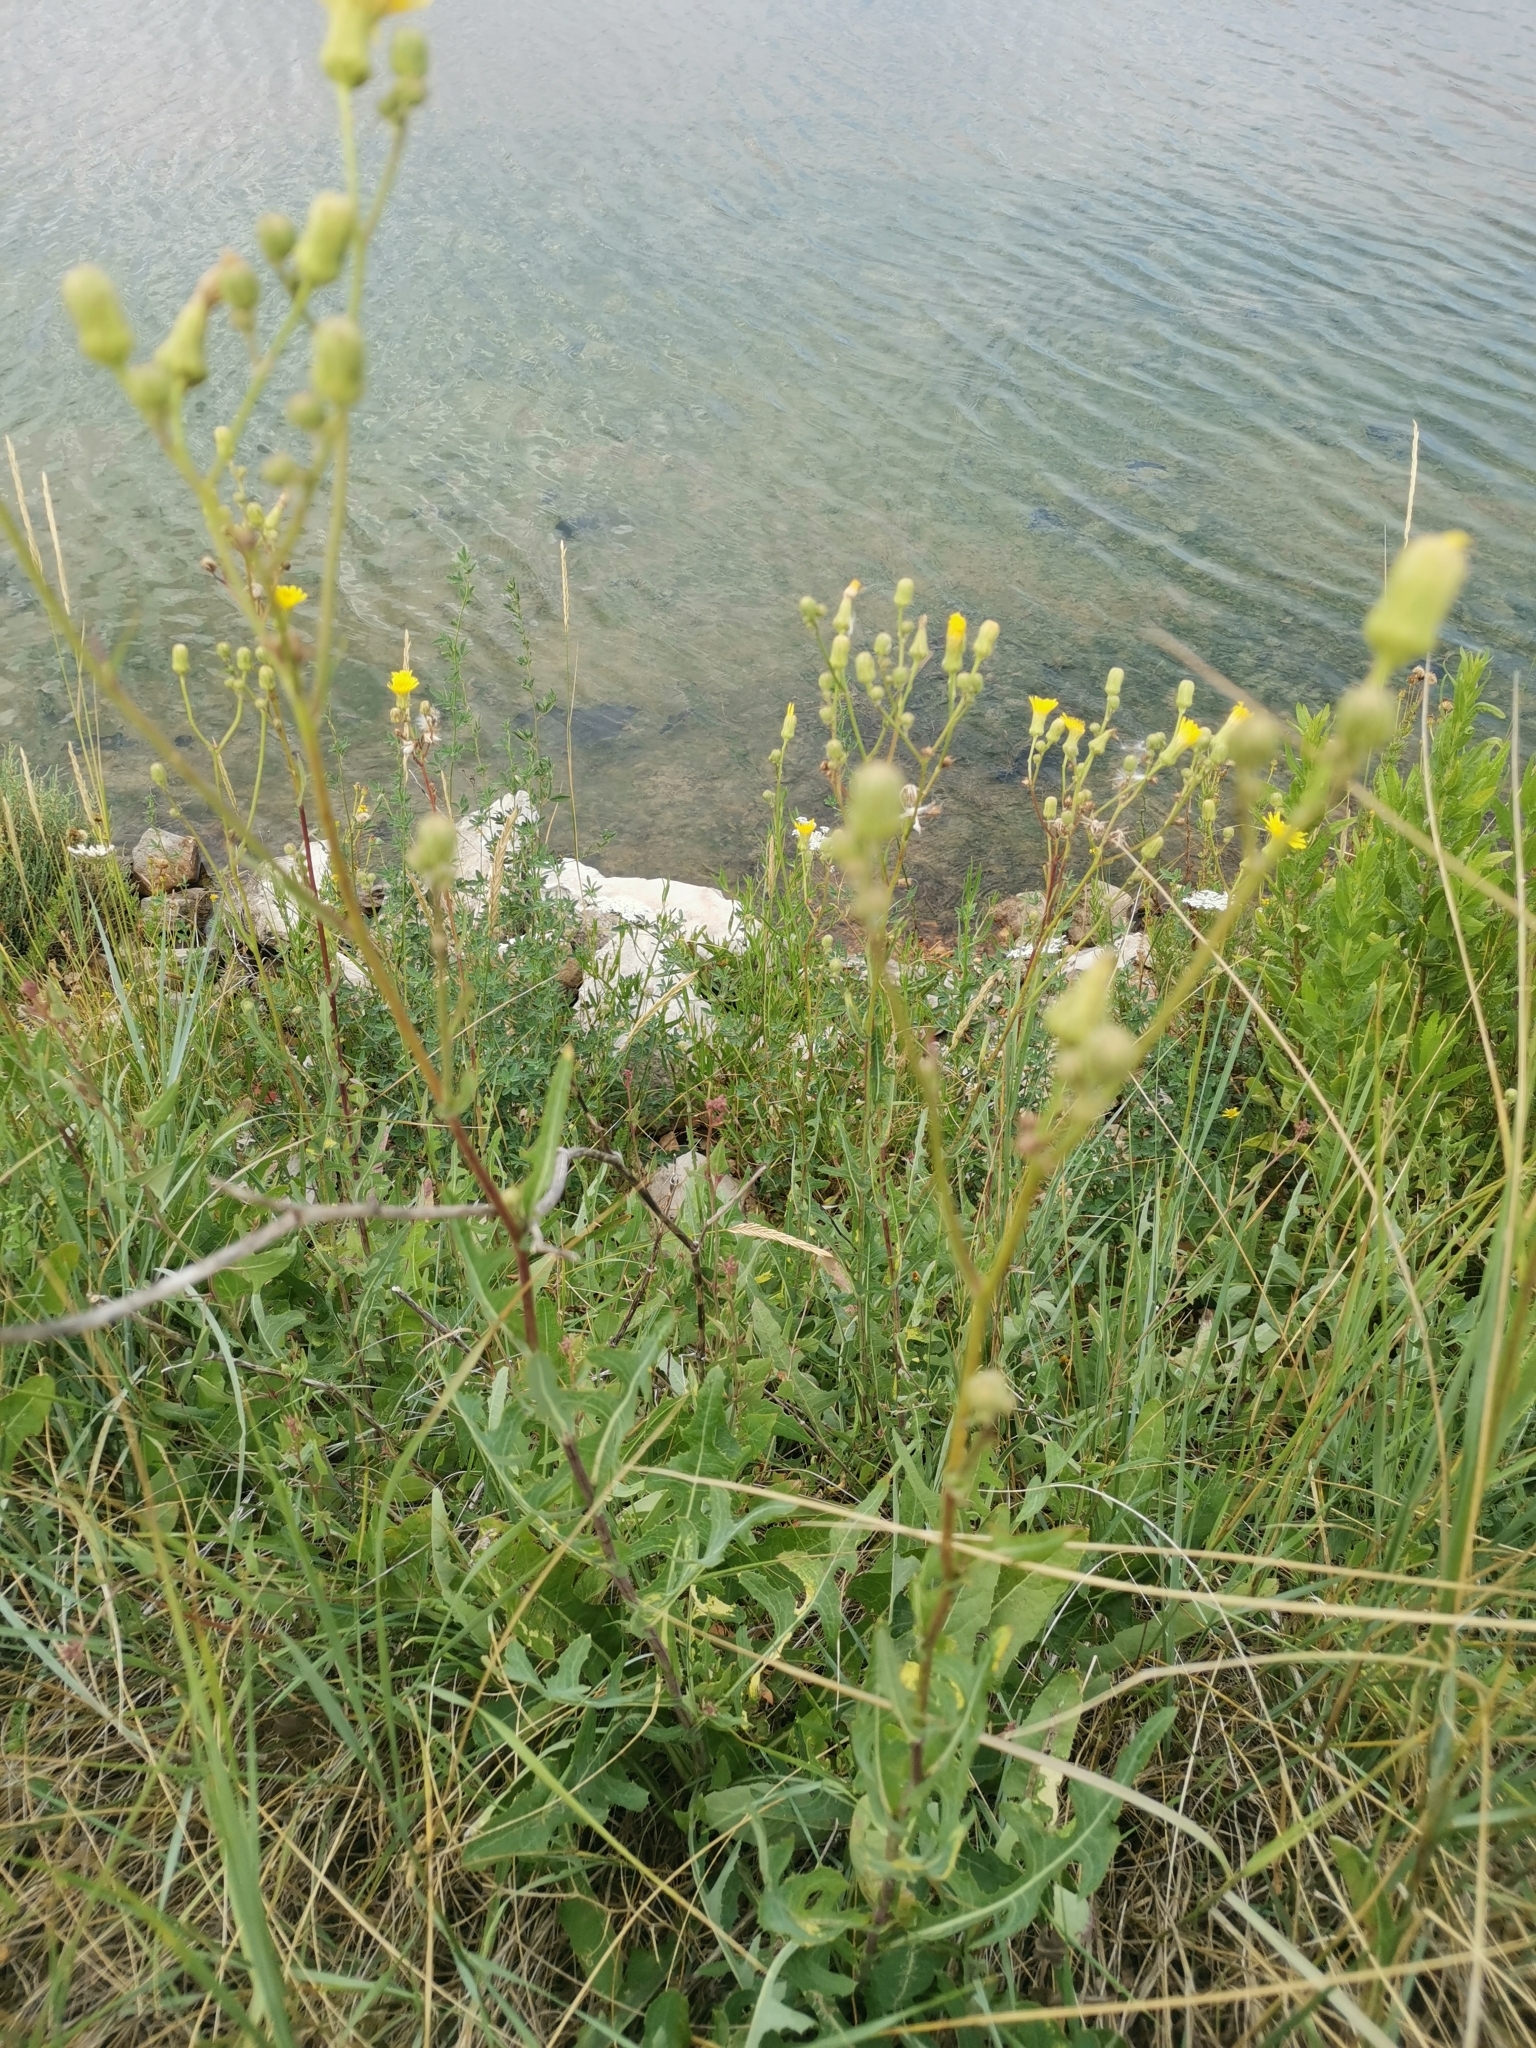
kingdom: Plantae
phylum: Tracheophyta
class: Magnoliopsida
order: Asterales
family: Asteraceae
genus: Sonchus
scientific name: Sonchus arvensis
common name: Perennial sow-thistle
